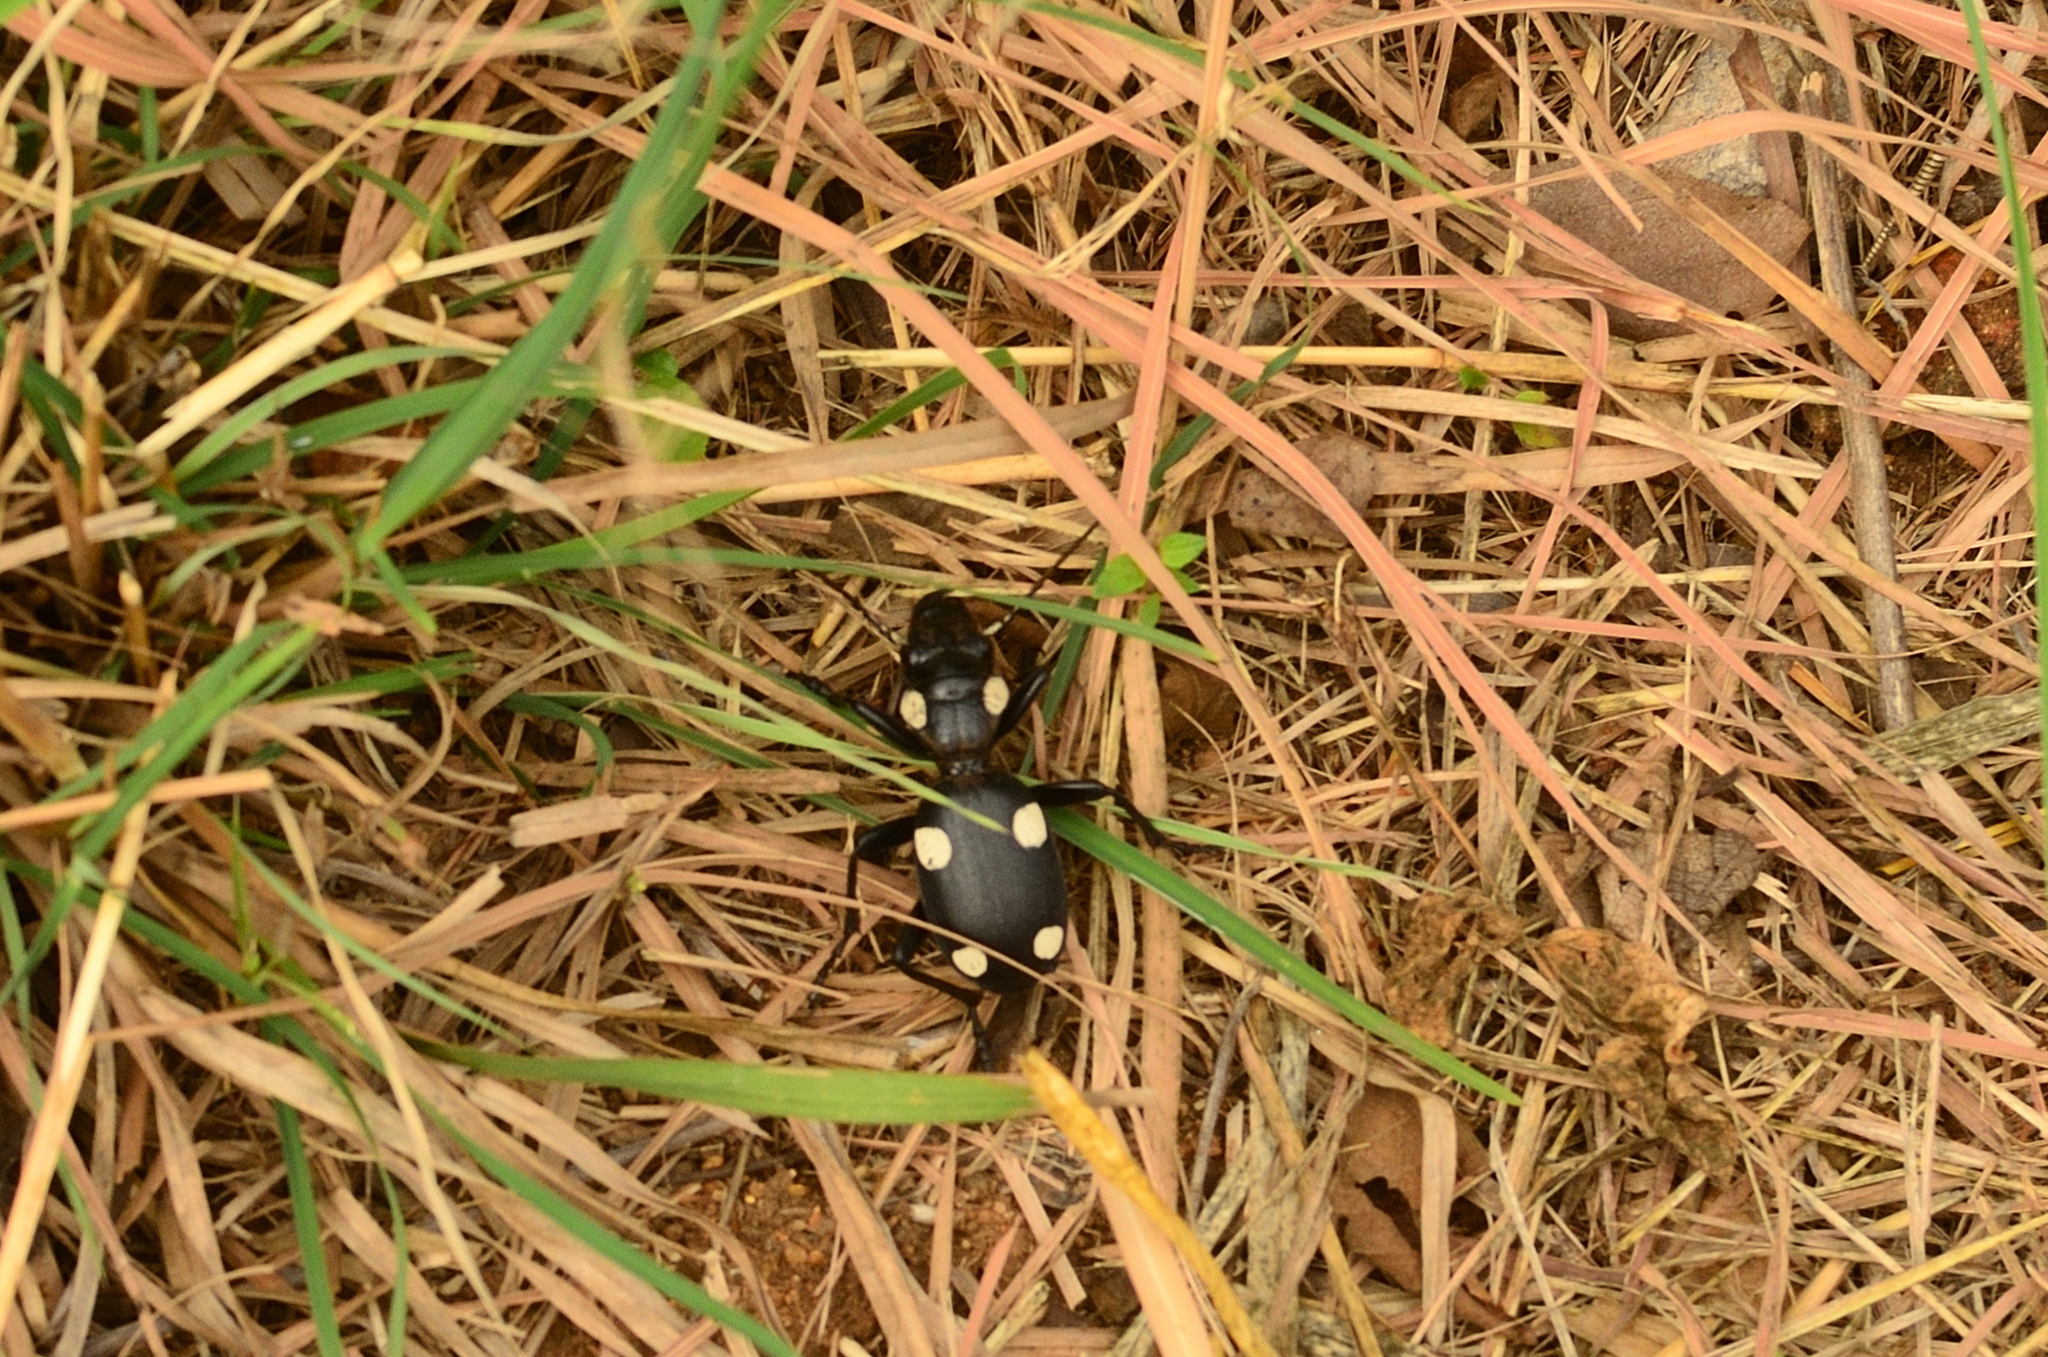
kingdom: Animalia
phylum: Arthropoda
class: Insecta
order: Coleoptera
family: Carabidae
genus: Anthia
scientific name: Anthia sexguttata
